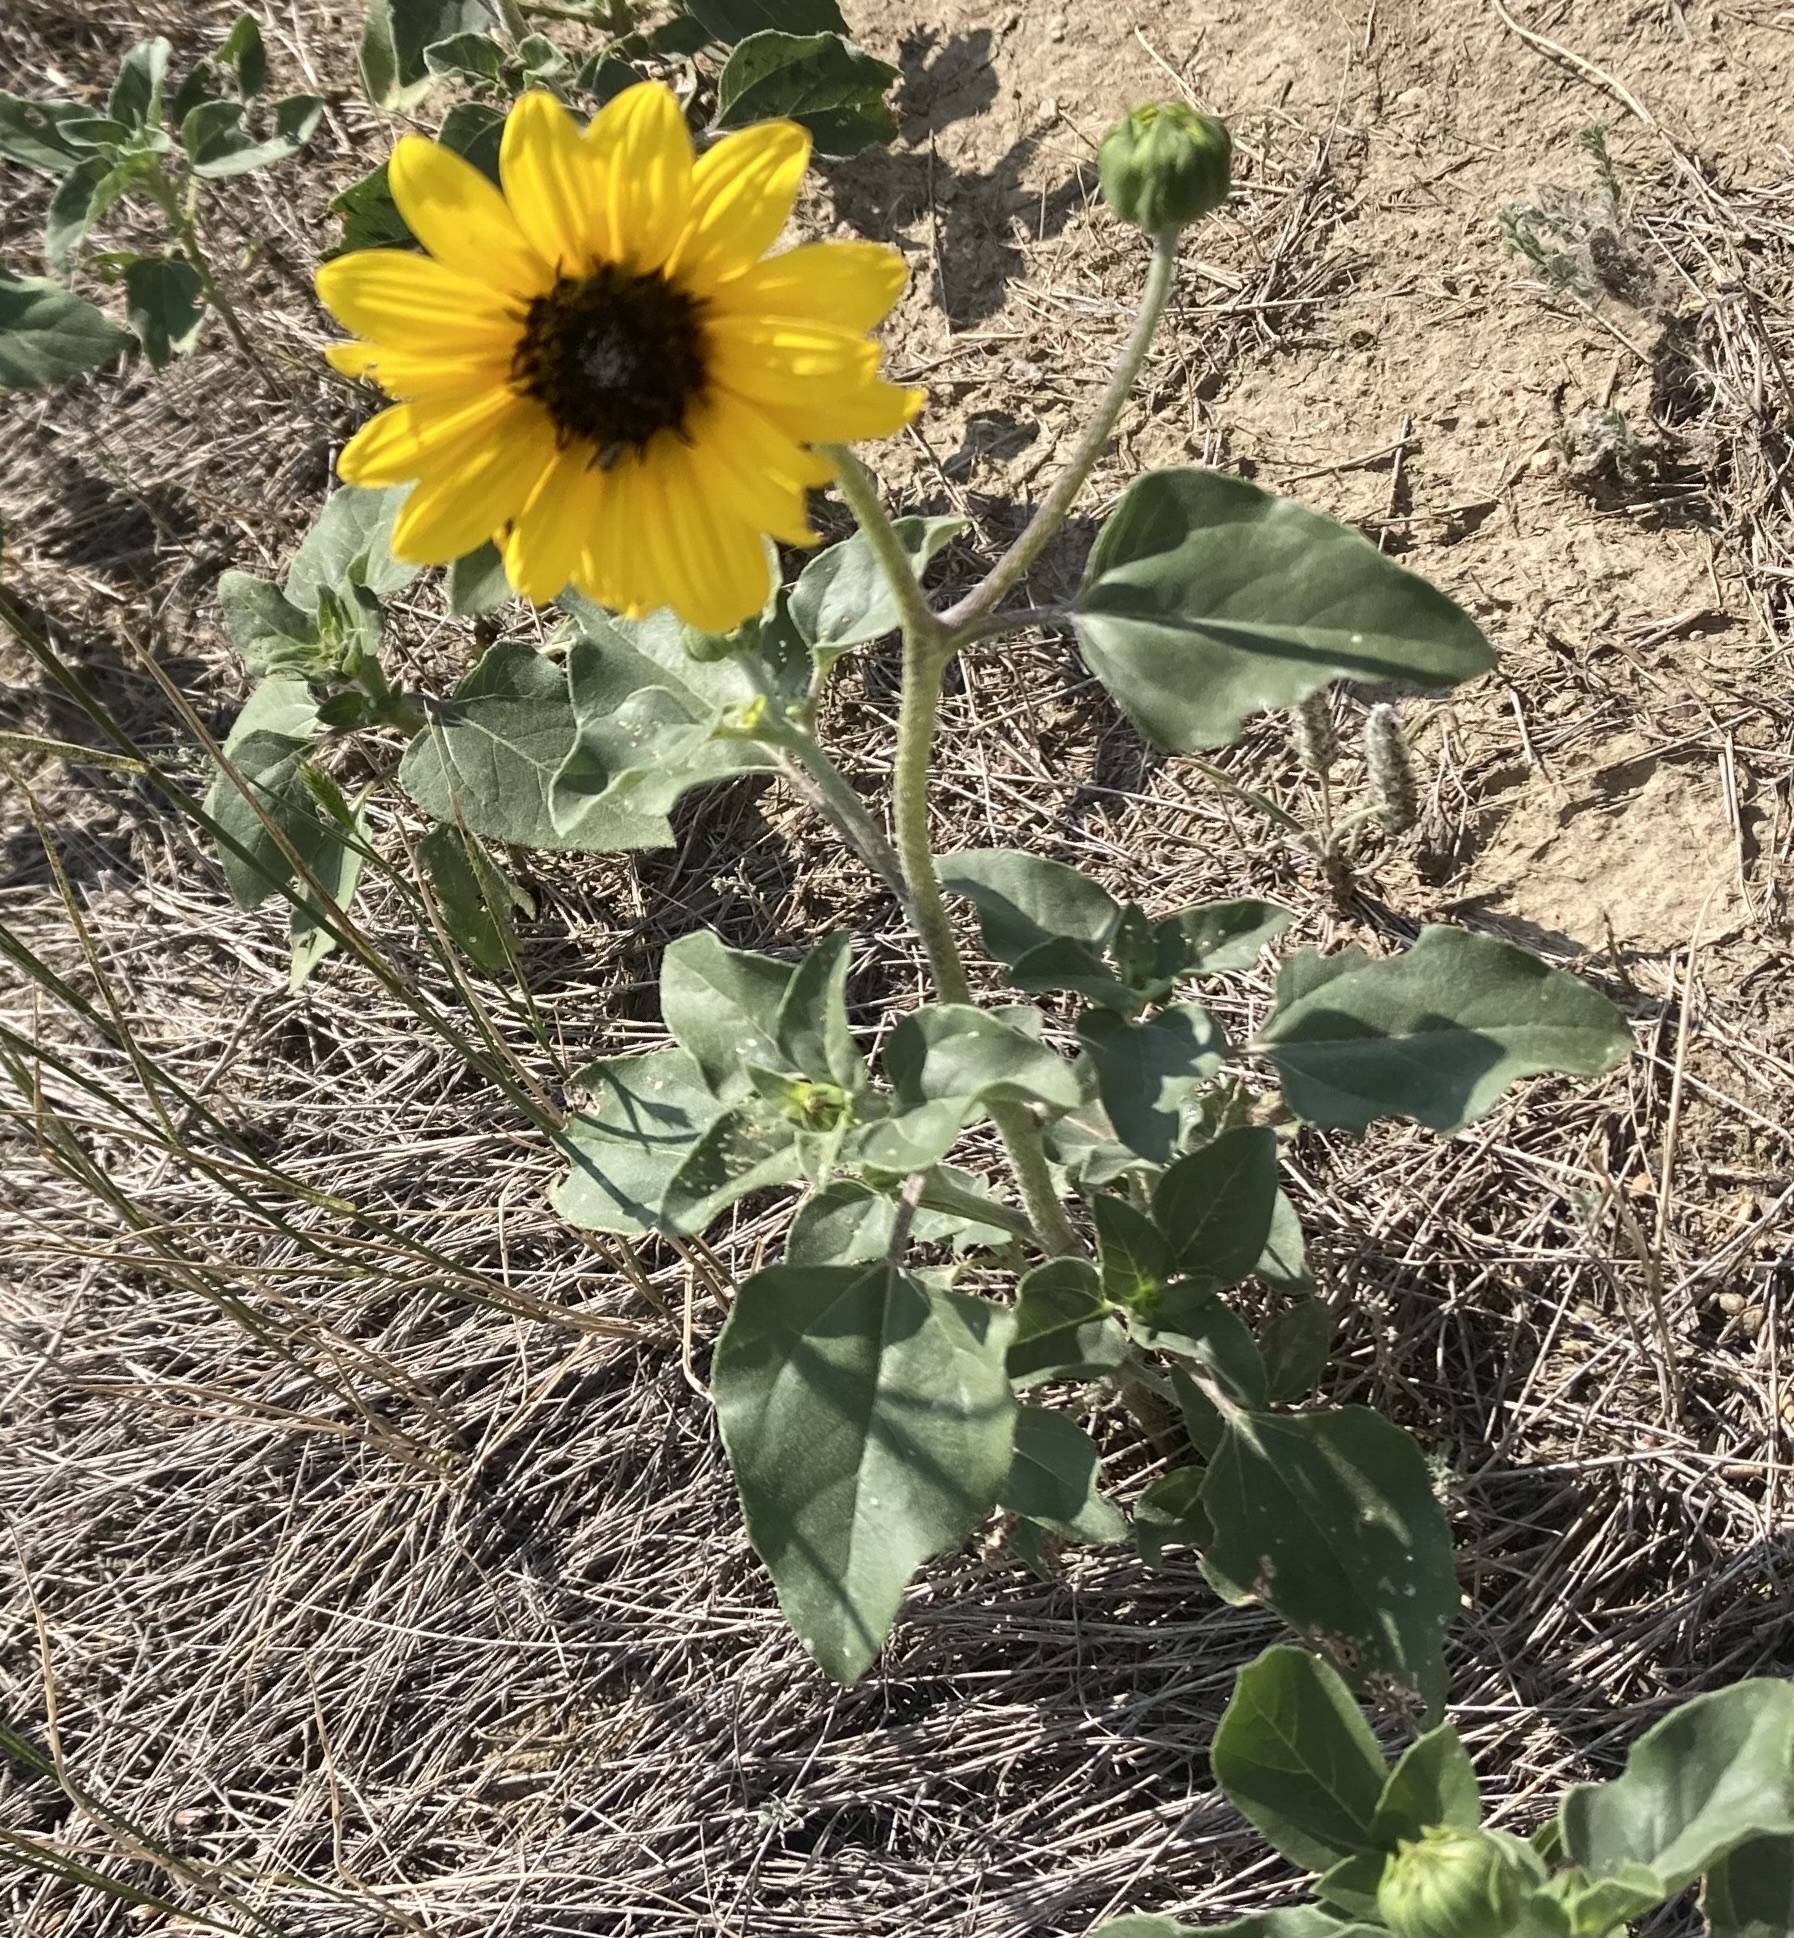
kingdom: Plantae
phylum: Tracheophyta
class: Magnoliopsida
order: Asterales
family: Asteraceae
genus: Helianthus
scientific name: Helianthus petiolaris
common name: Lesser sunflower
